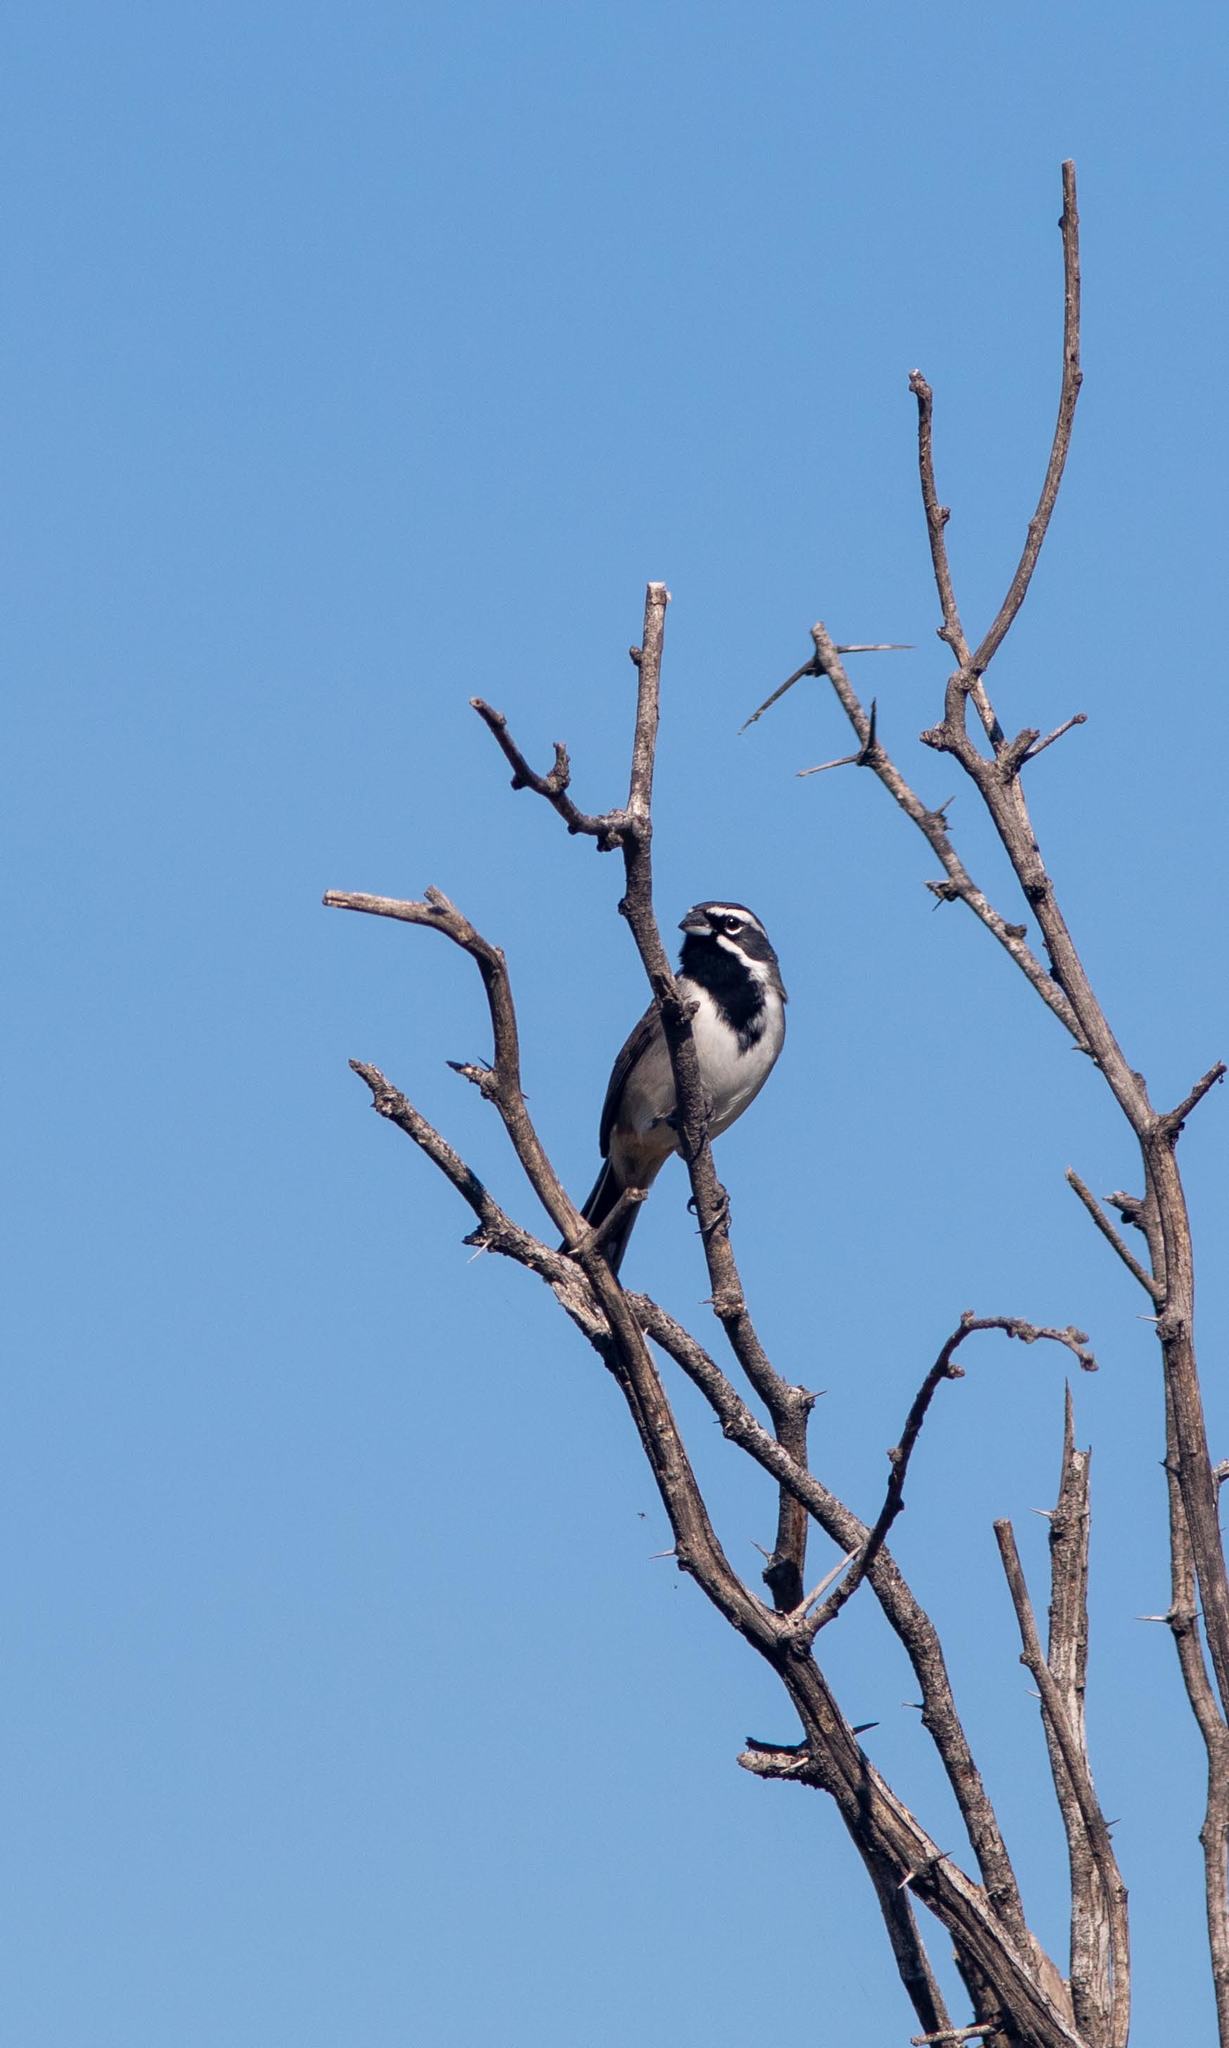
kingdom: Animalia
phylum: Chordata
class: Aves
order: Passeriformes
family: Passerellidae
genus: Amphispiza
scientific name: Amphispiza bilineata
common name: Black-throated sparrow
